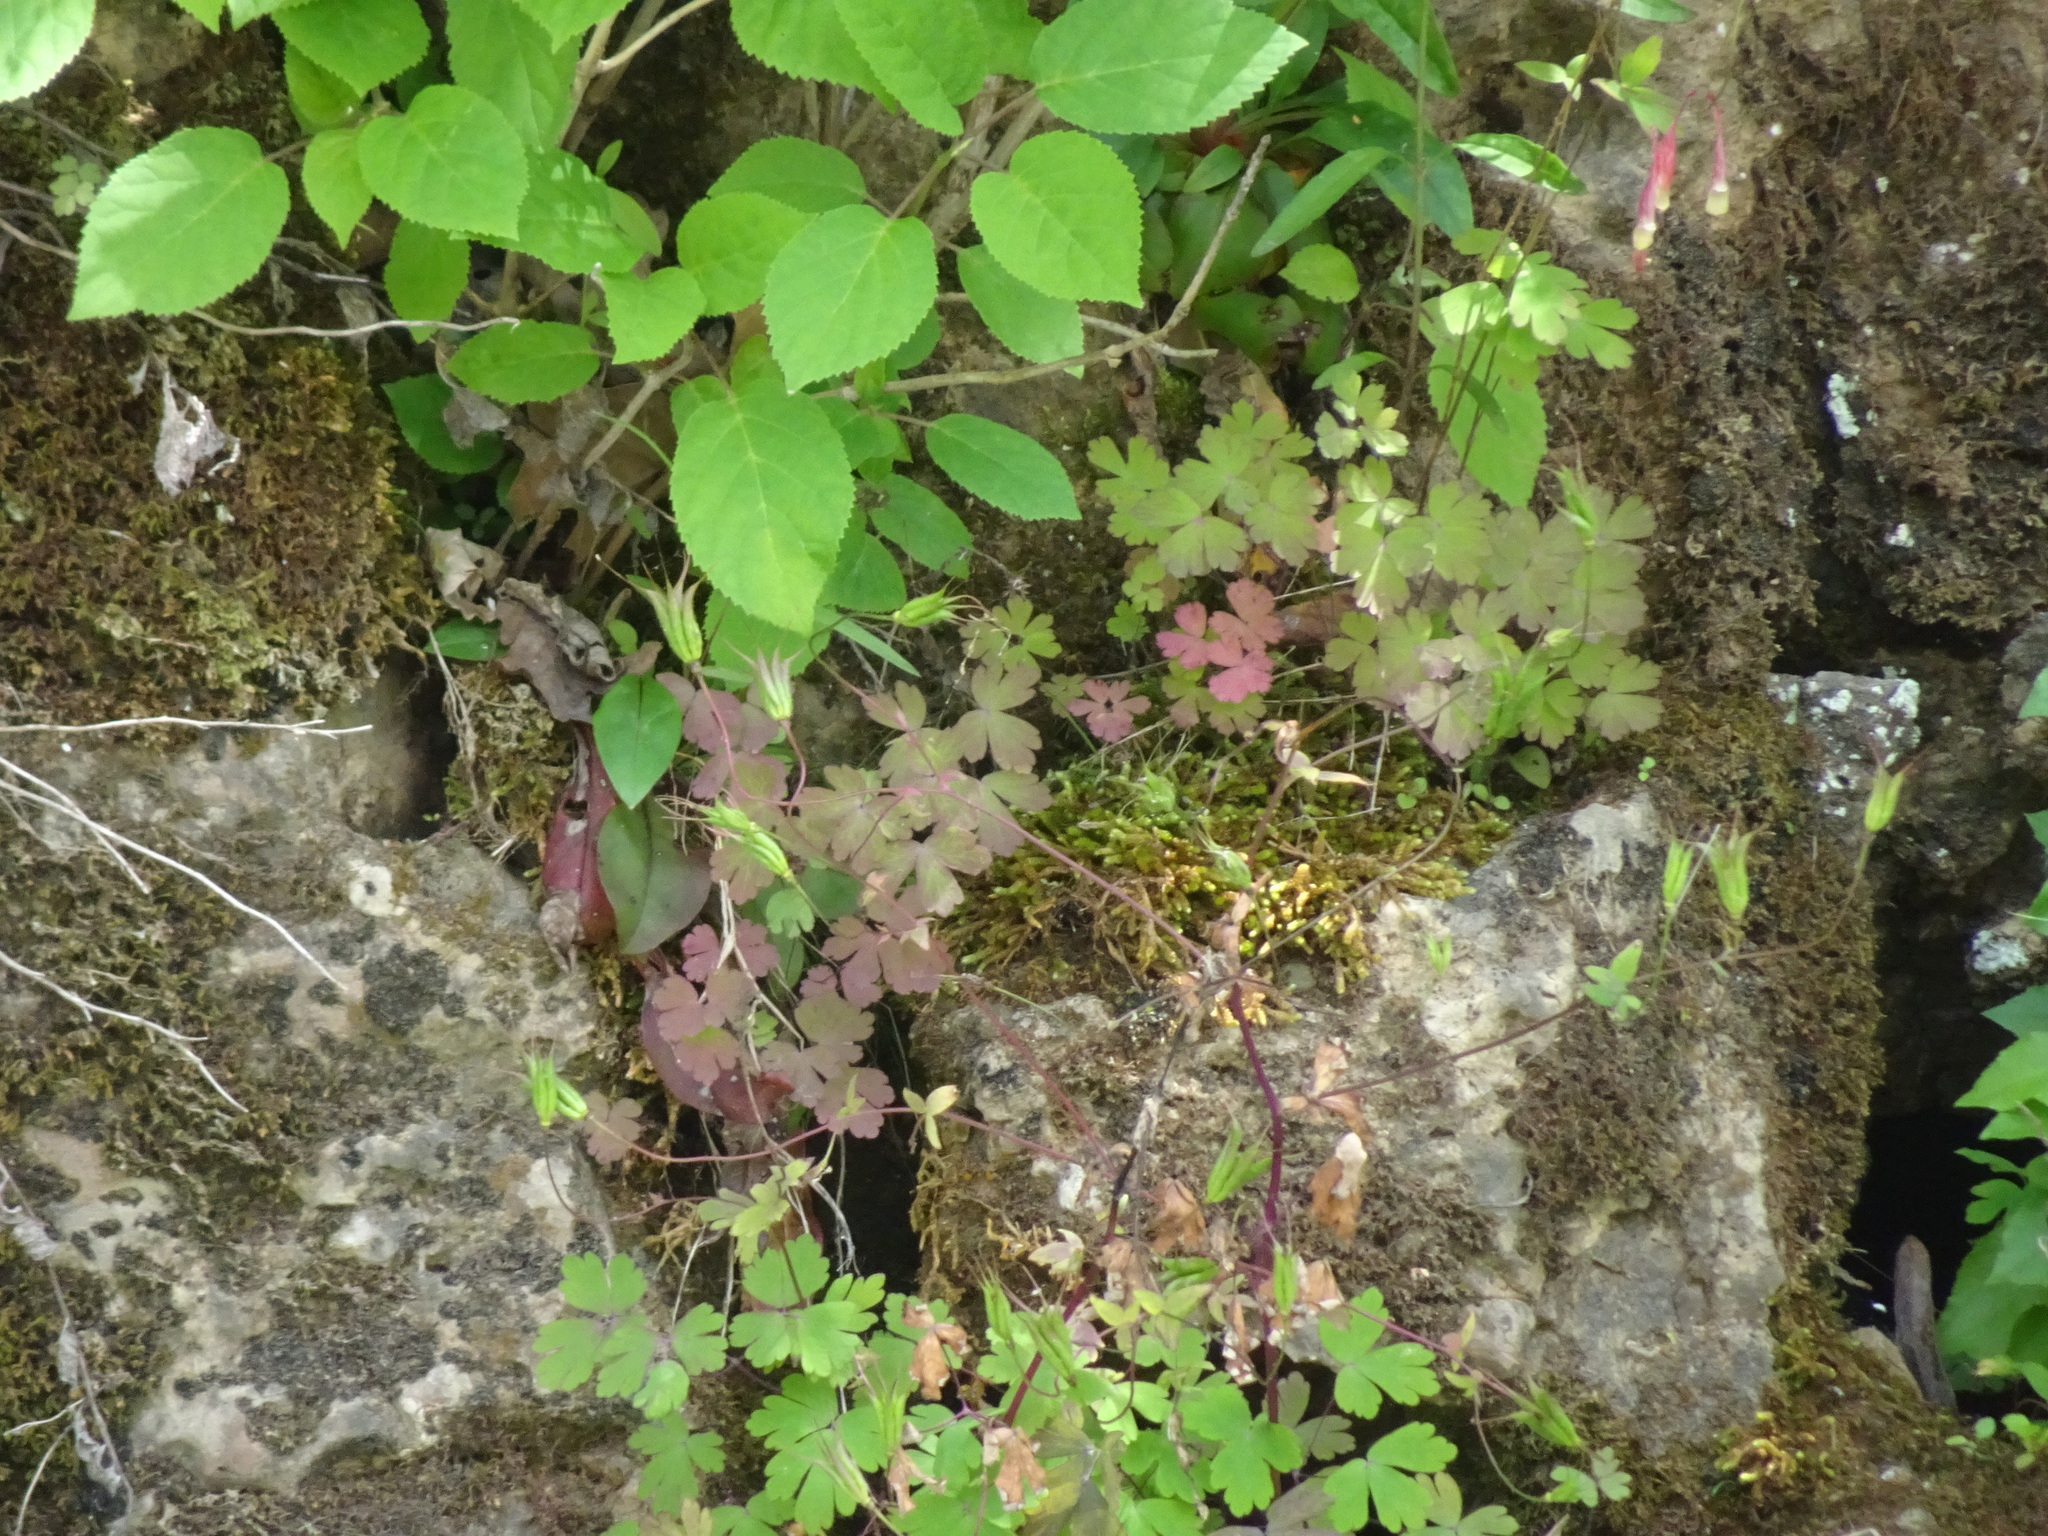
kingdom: Plantae
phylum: Tracheophyta
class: Magnoliopsida
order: Ranunculales
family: Ranunculaceae
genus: Aquilegia
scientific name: Aquilegia canadensis
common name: American columbine
